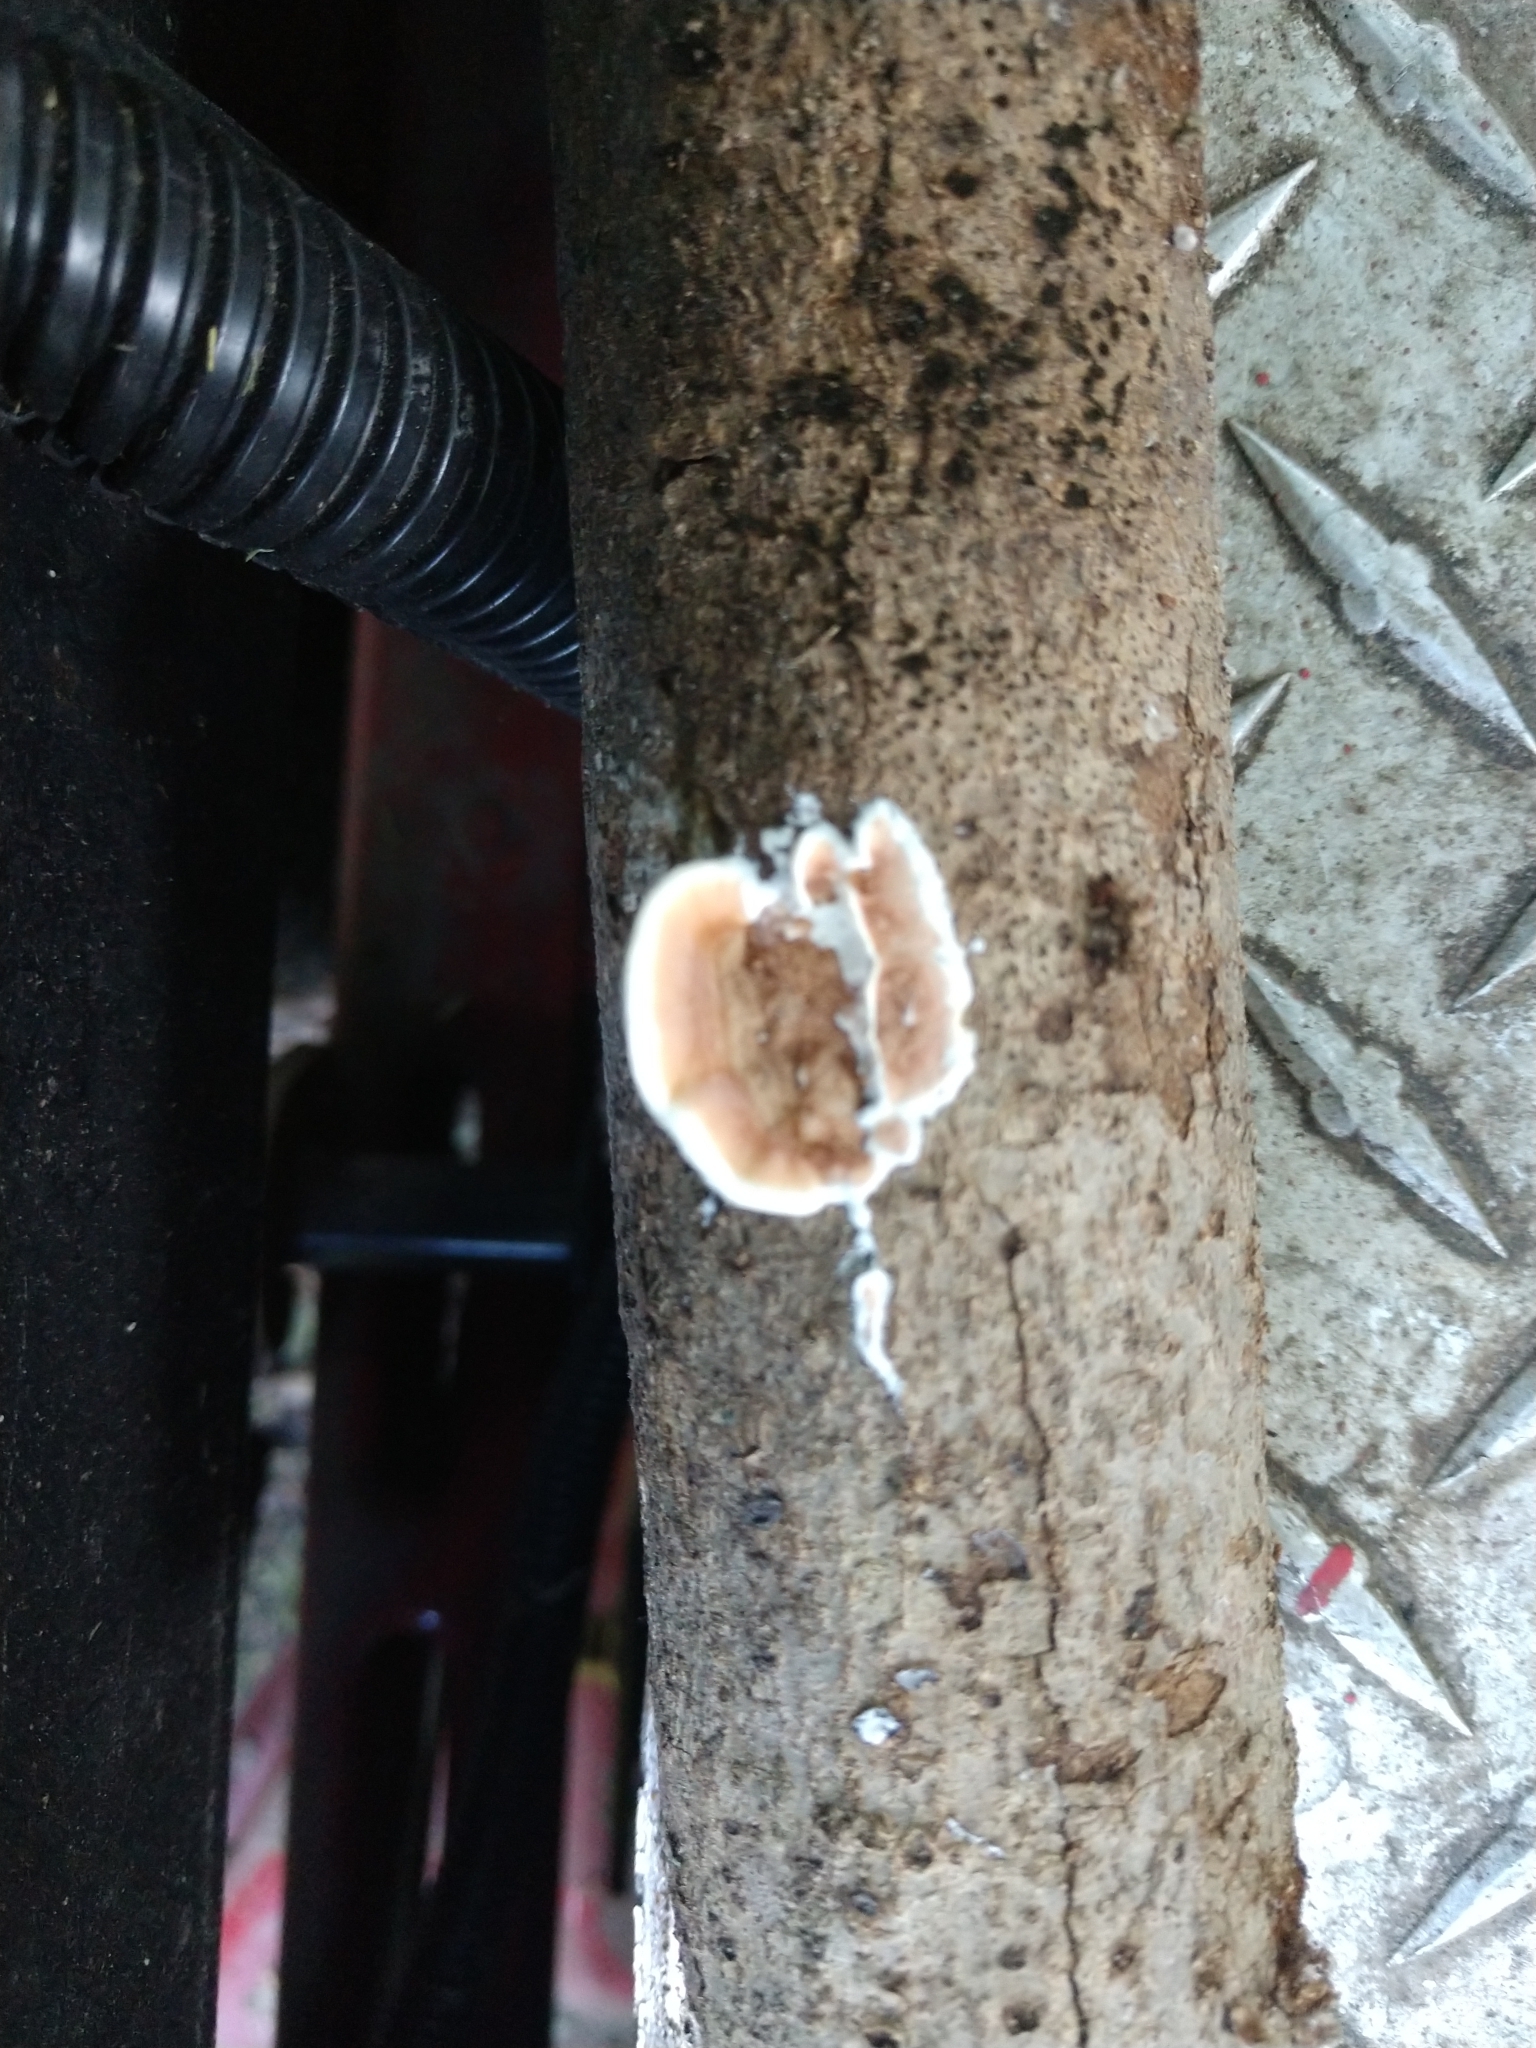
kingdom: Fungi
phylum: Basidiomycota
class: Agaricomycetes
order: Polyporales
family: Irpicaceae
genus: Vitreoporus
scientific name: Vitreoporus dichrous
